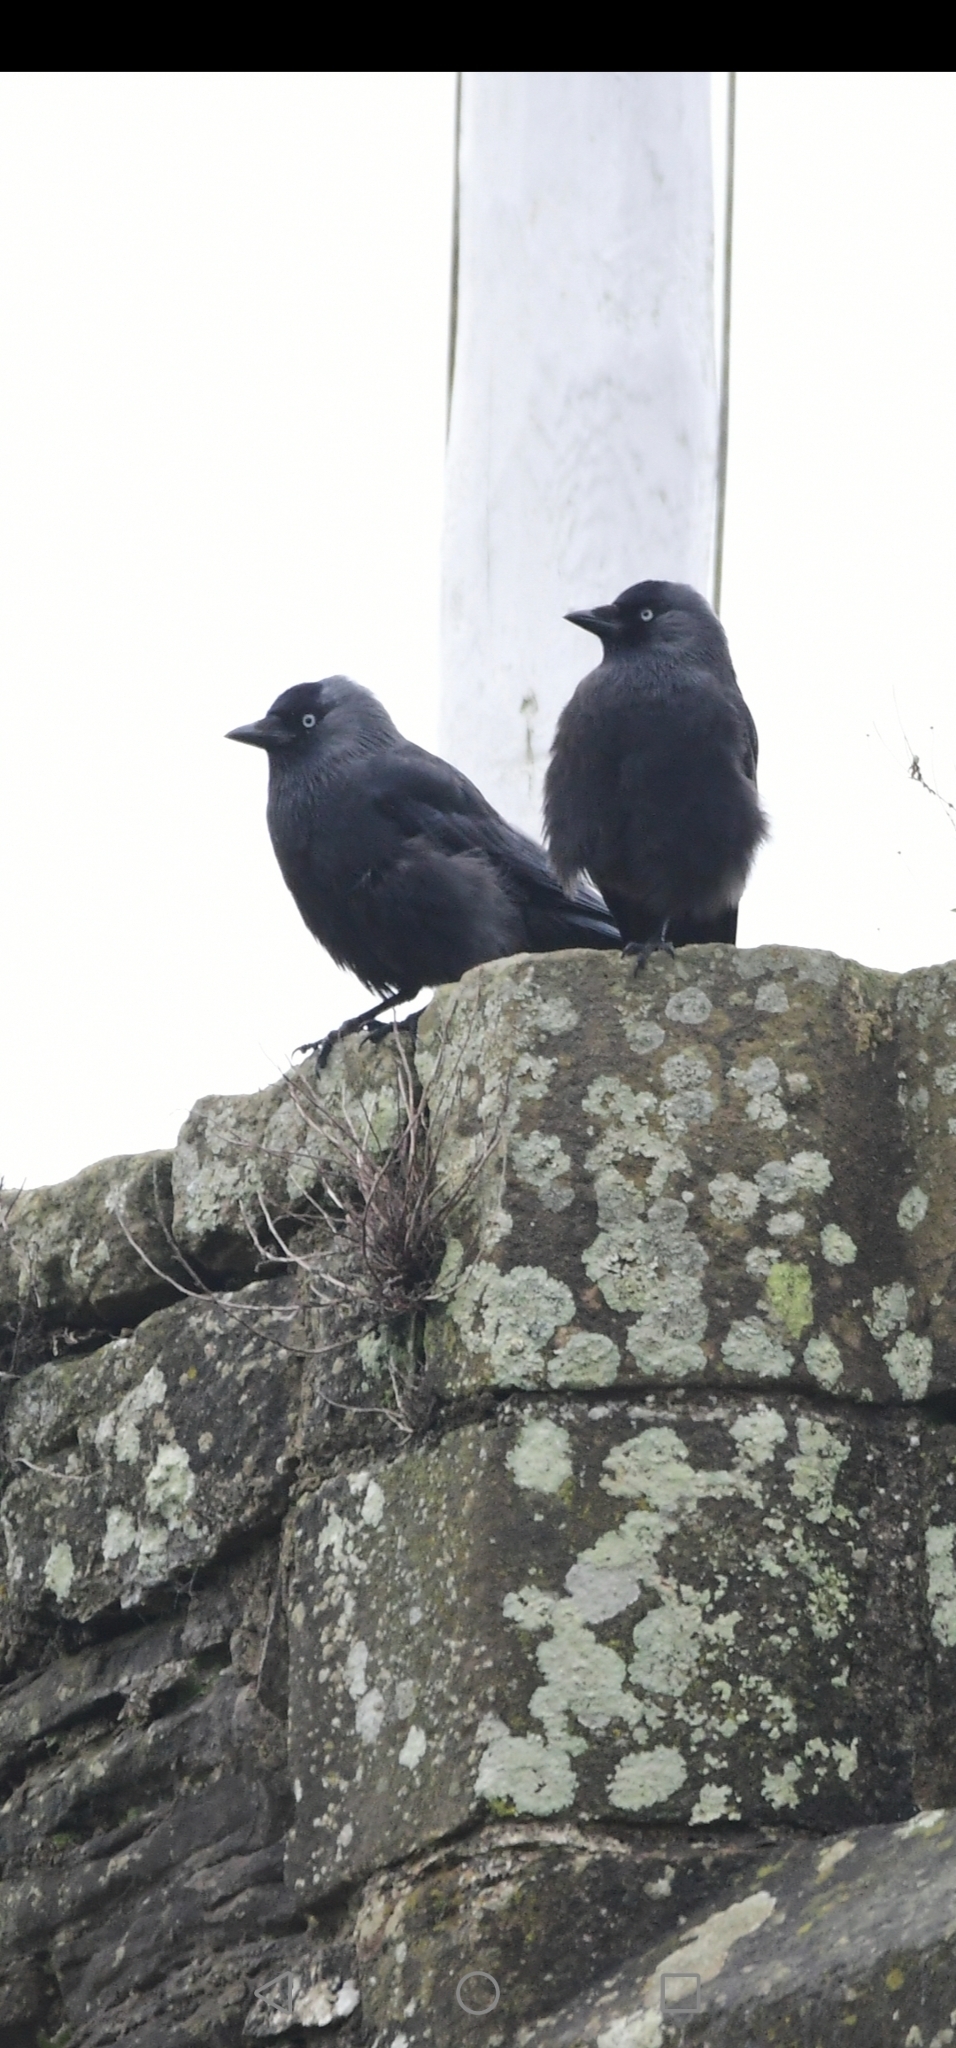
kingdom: Animalia
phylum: Chordata
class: Aves
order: Passeriformes
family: Corvidae
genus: Coloeus
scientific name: Coloeus monedula
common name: Western jackdaw
